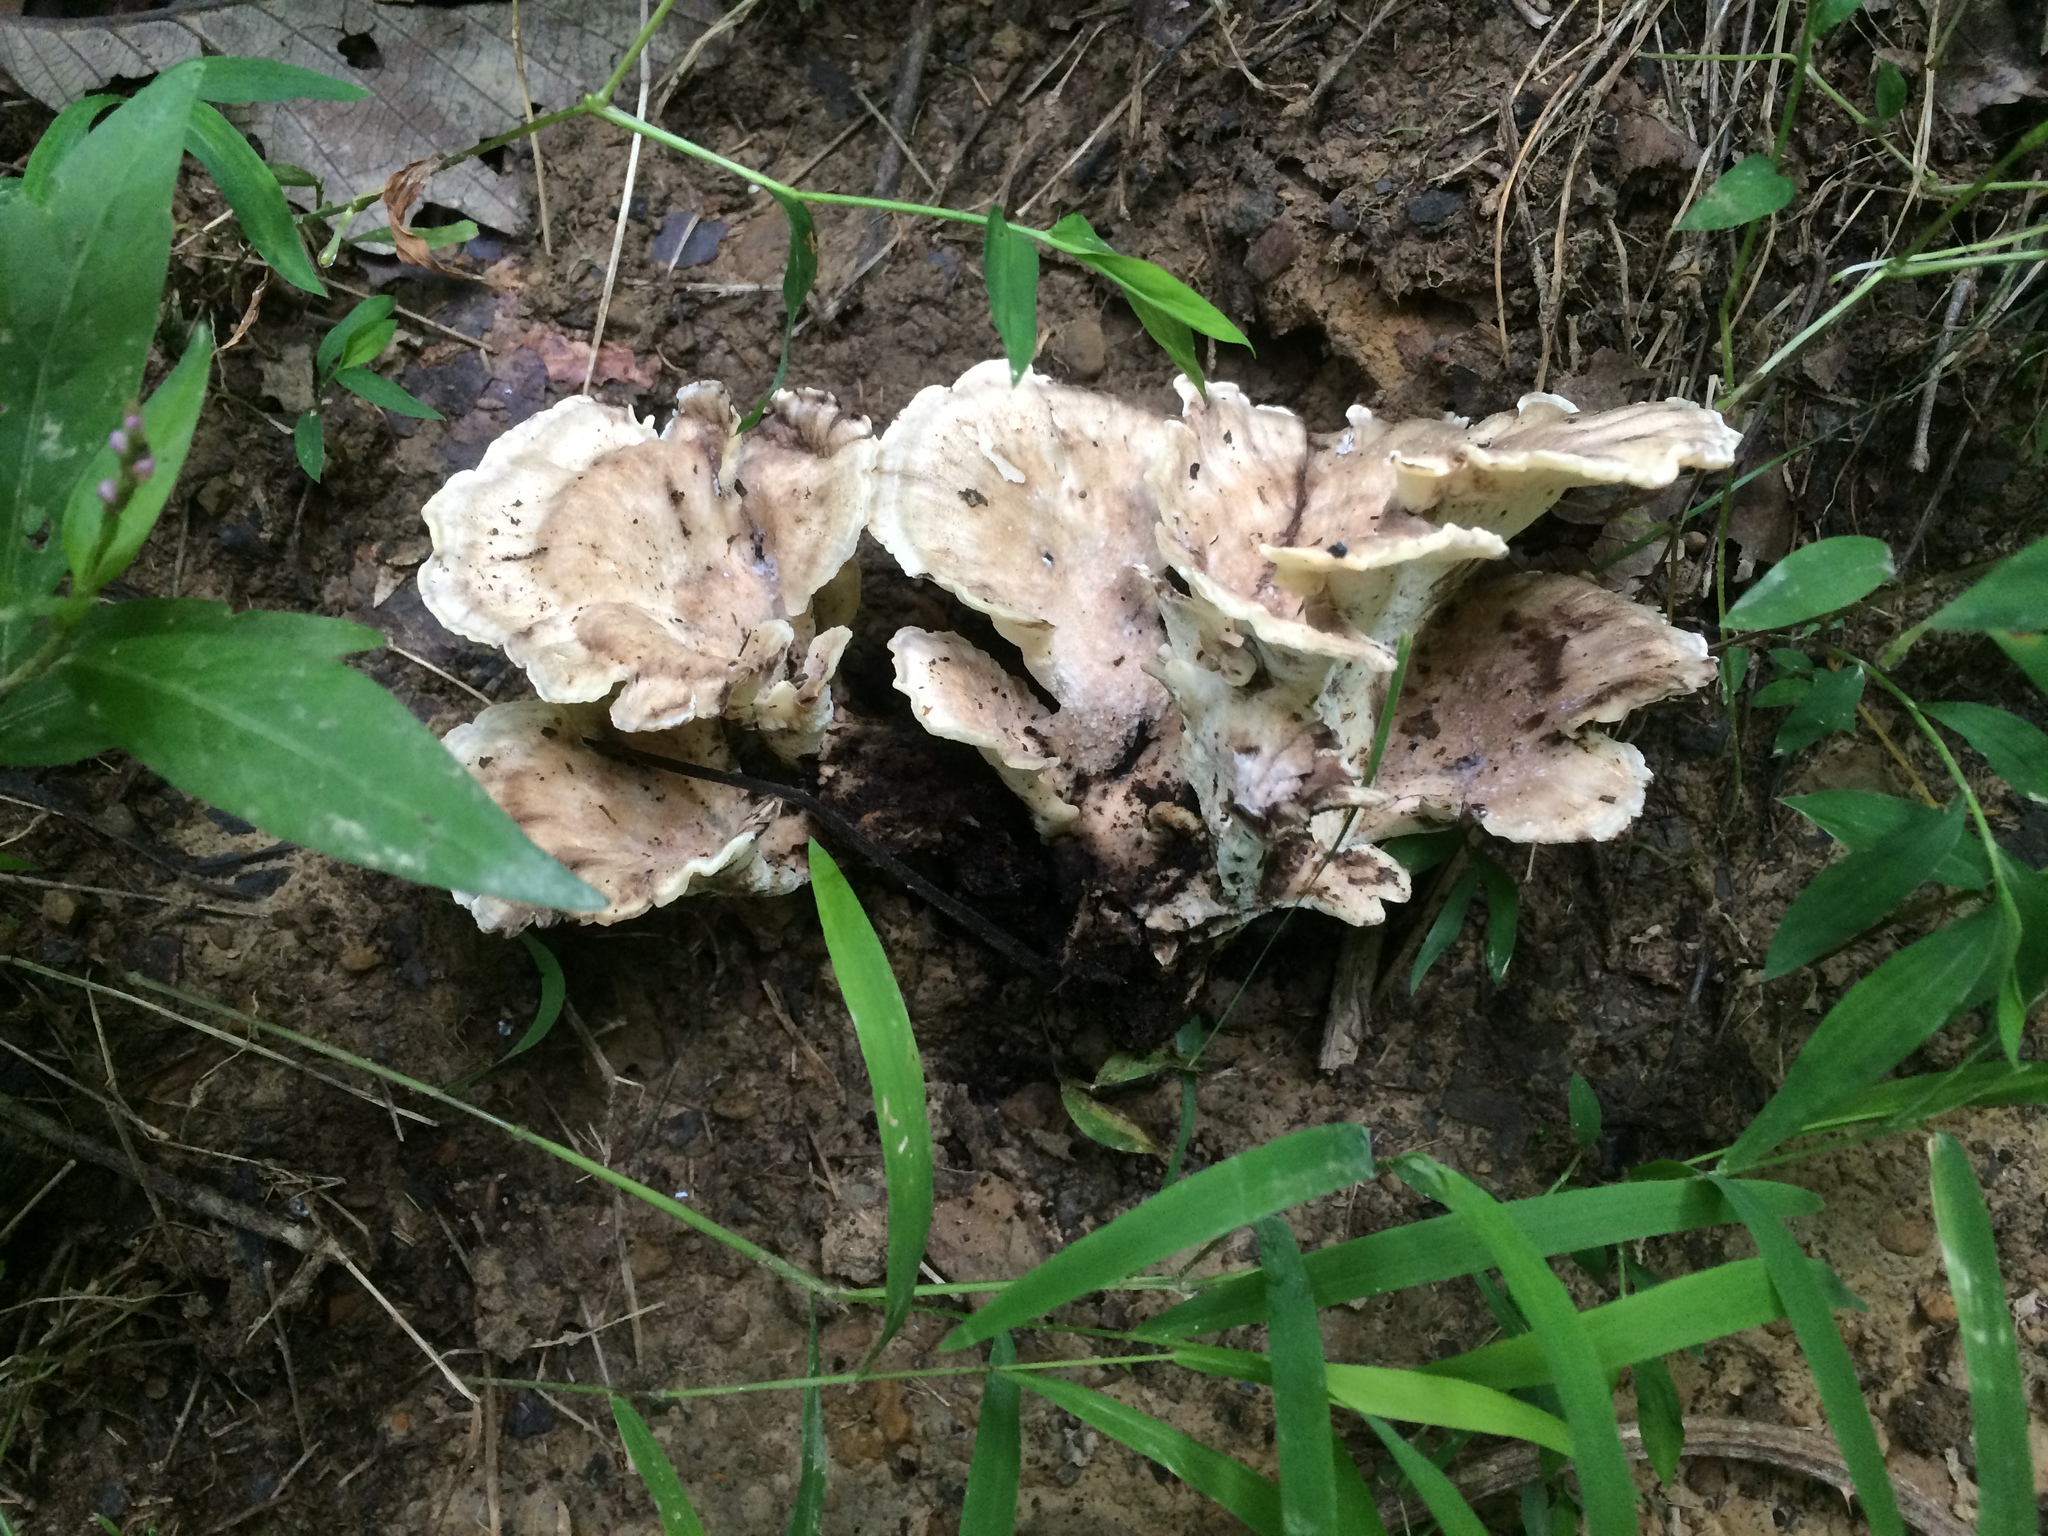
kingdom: Fungi
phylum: Basidiomycota
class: Agaricomycetes
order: Polyporales
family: Meripilaceae
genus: Meripilus
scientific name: Meripilus sumstinei
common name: Black-staining polypore
